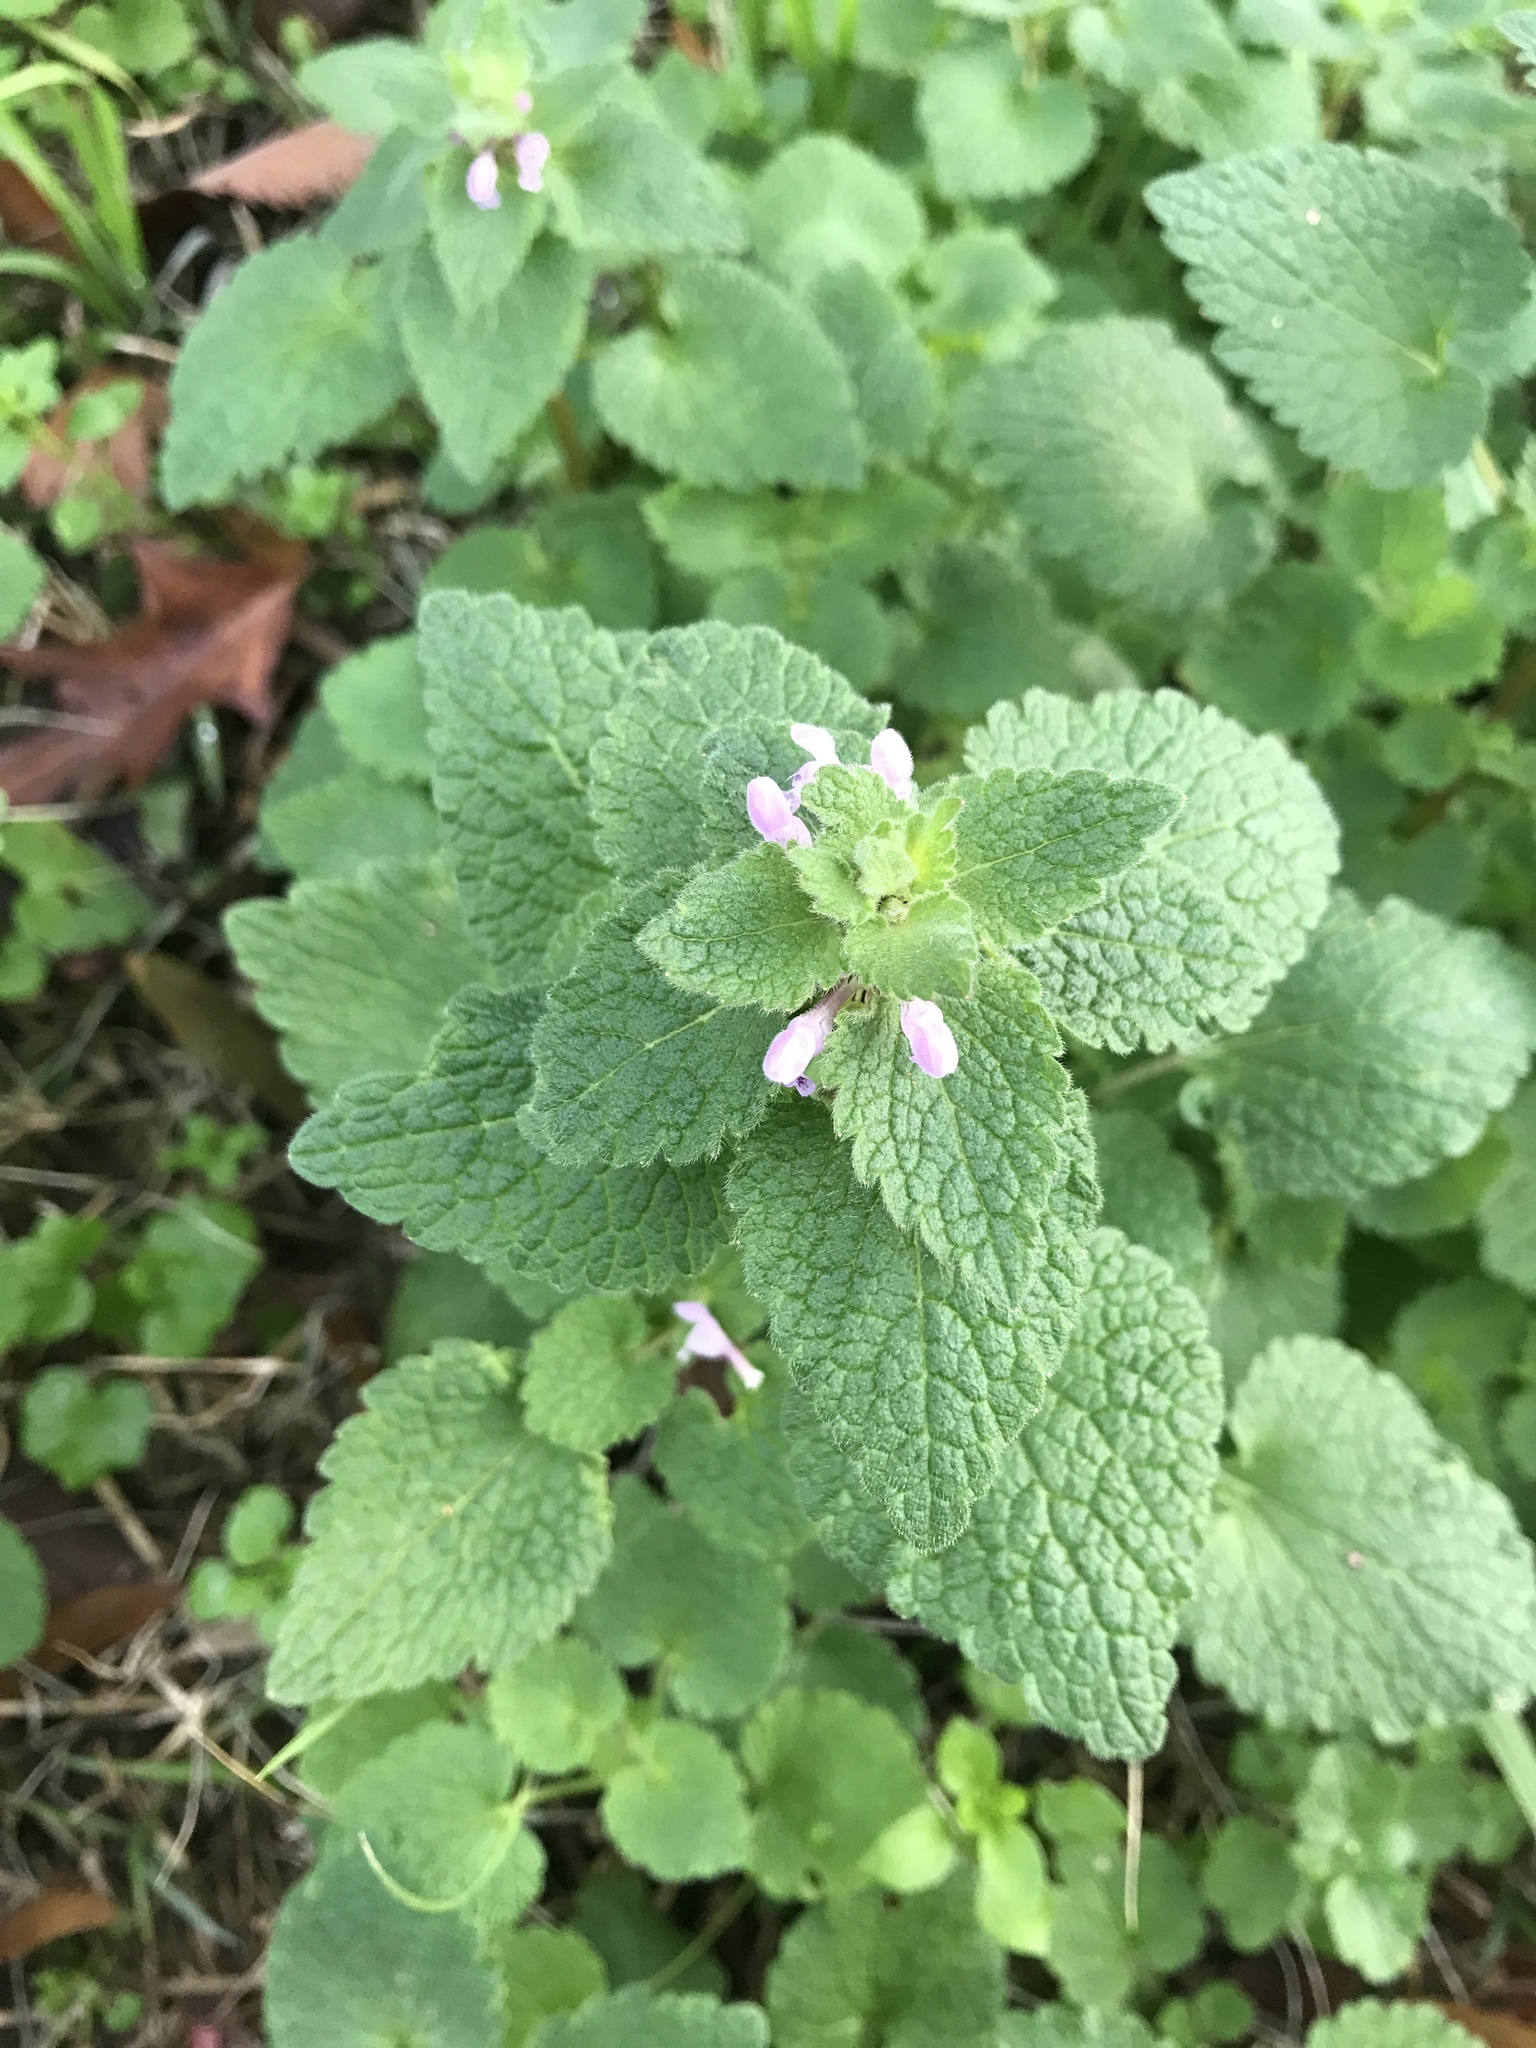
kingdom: Plantae
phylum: Tracheophyta
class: Magnoliopsida
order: Lamiales
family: Lamiaceae
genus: Lamium
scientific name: Lamium purpureum
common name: Red dead-nettle
